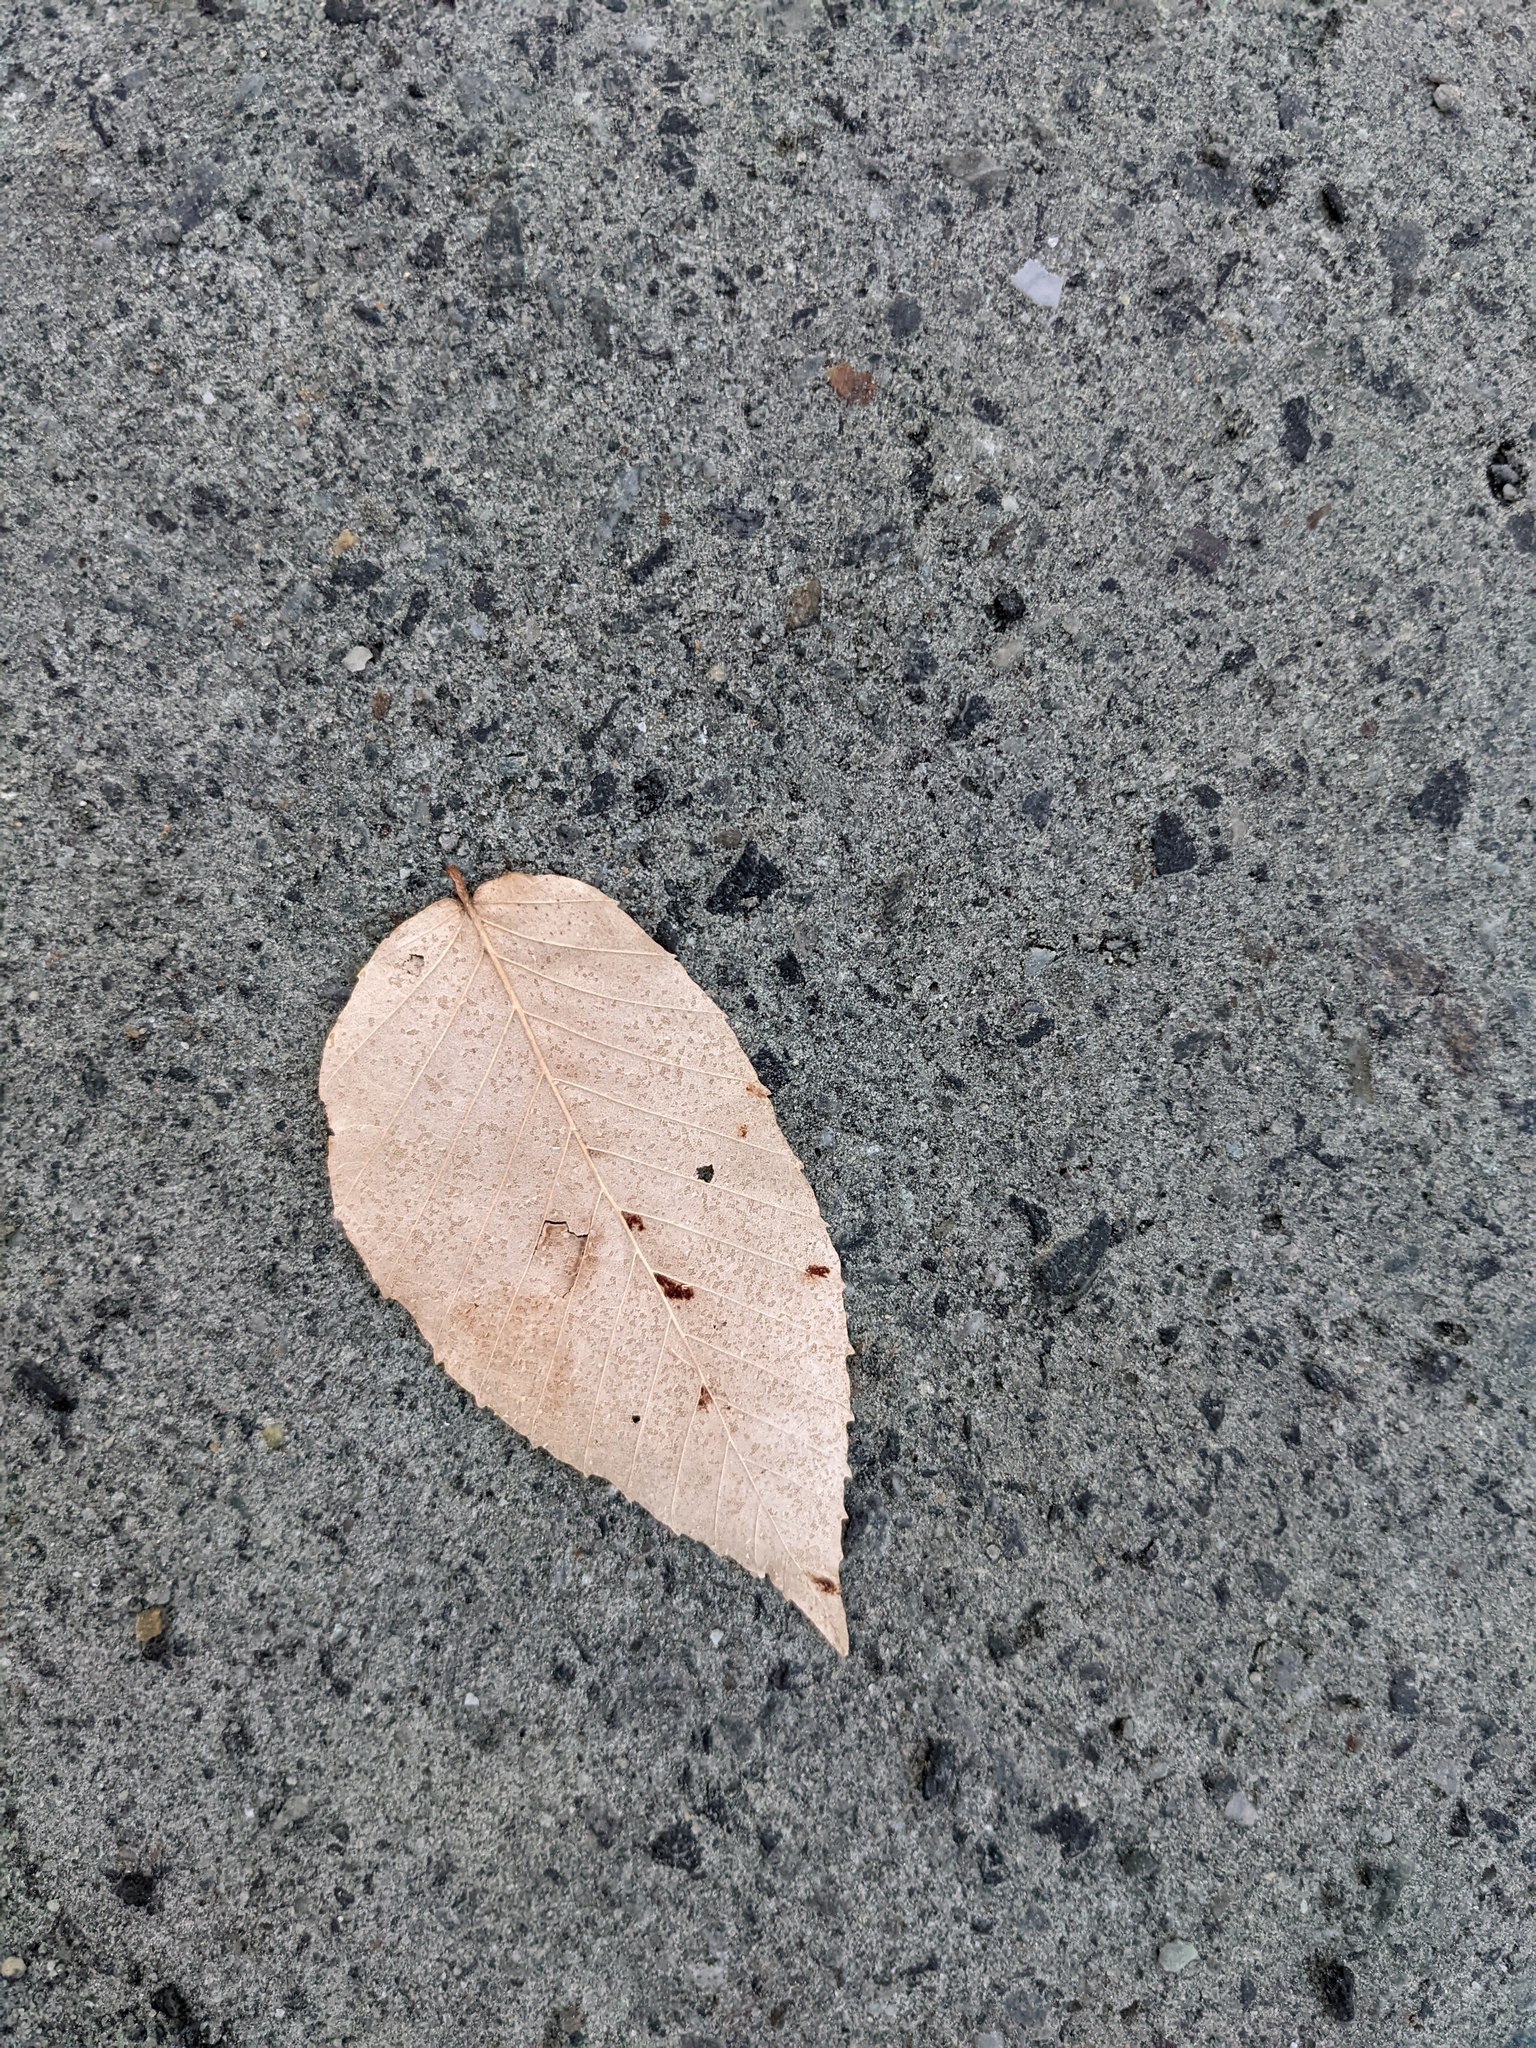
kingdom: Plantae
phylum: Tracheophyta
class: Magnoliopsida
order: Fagales
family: Fagaceae
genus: Fagus
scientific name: Fagus grandifolia
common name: American beech
